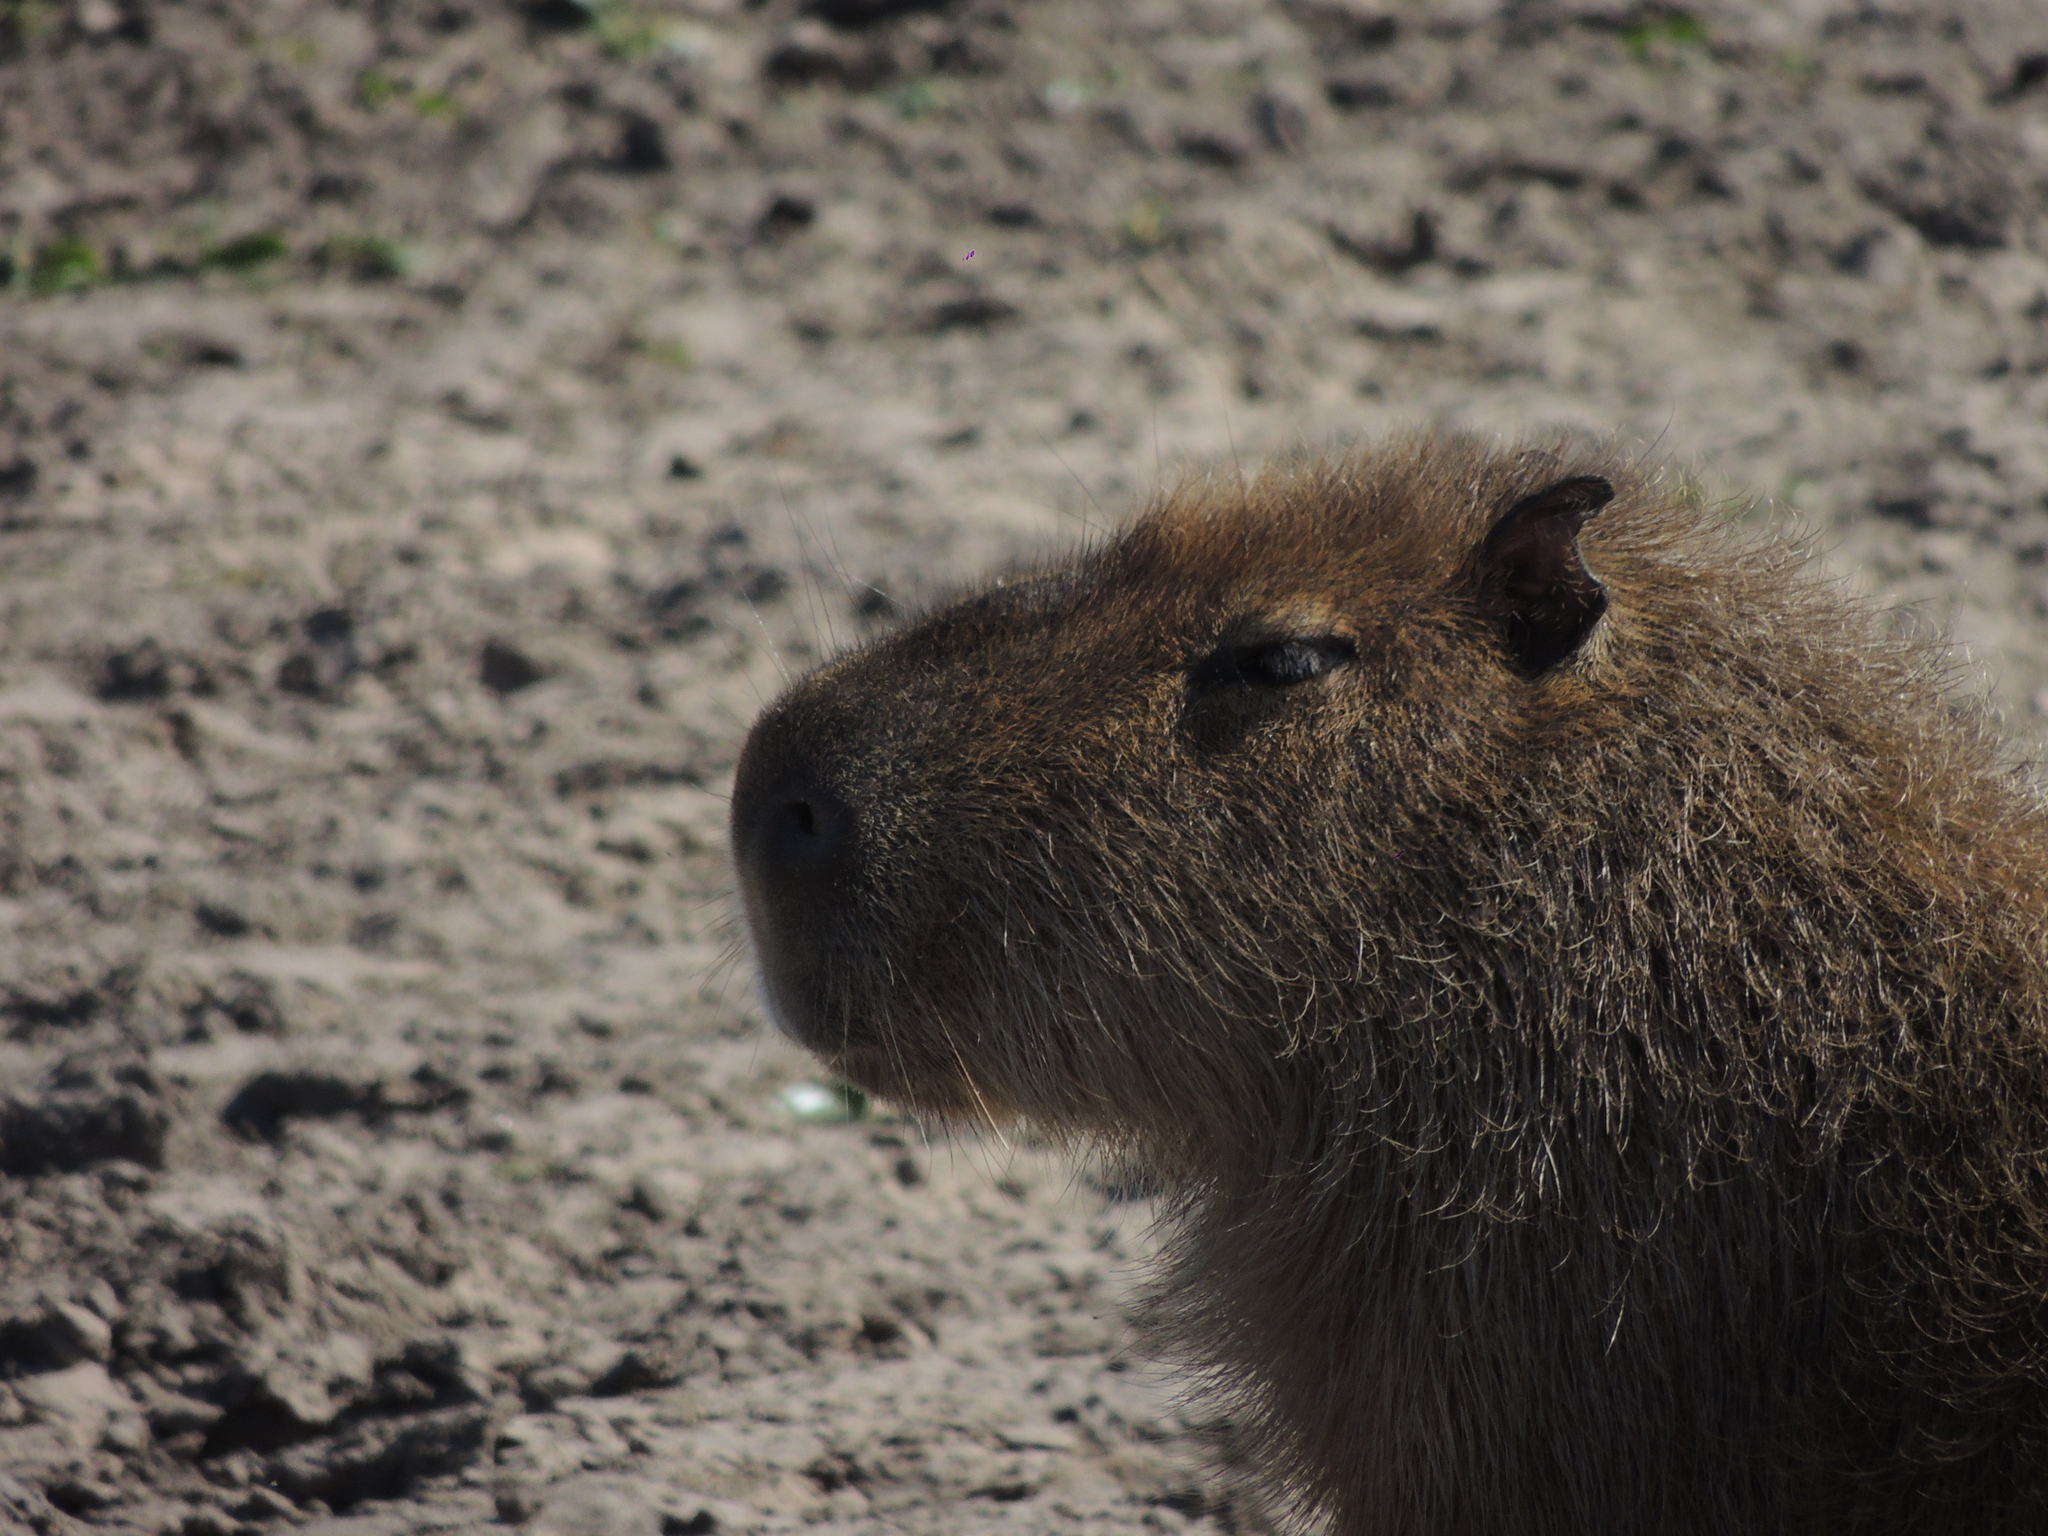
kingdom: Animalia
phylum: Chordata
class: Mammalia
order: Rodentia
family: Caviidae
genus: Hydrochoerus
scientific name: Hydrochoerus hydrochaeris
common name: Capybara
